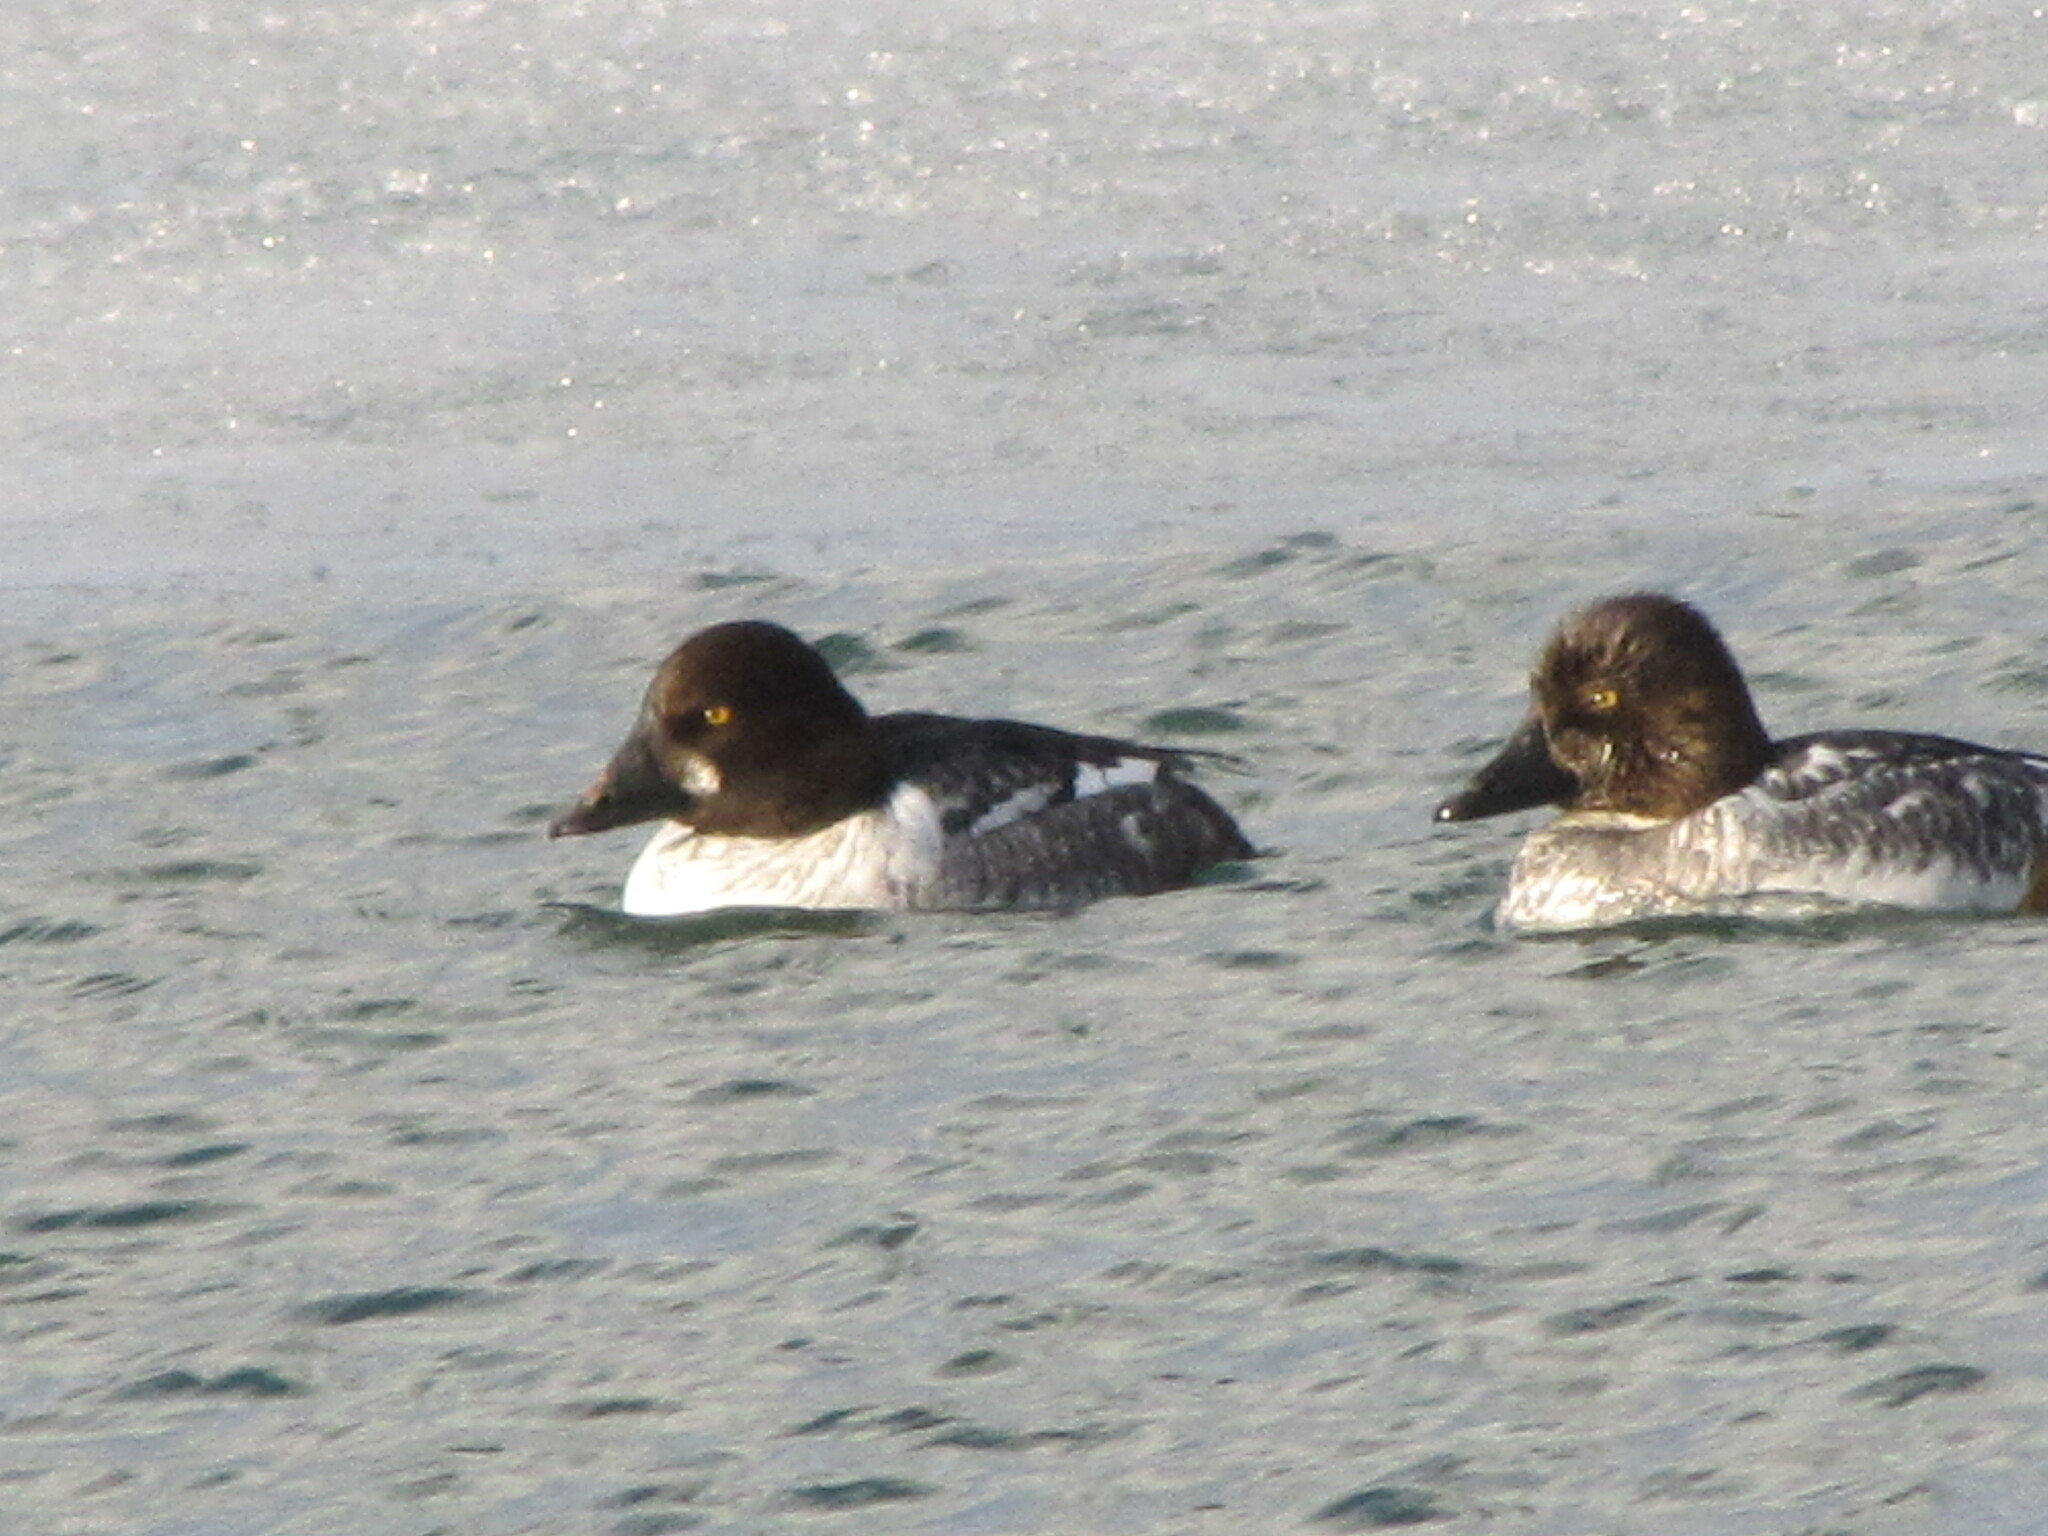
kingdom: Animalia
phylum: Chordata
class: Aves
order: Anseriformes
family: Anatidae
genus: Bucephala
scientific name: Bucephala clangula
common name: Common goldeneye
